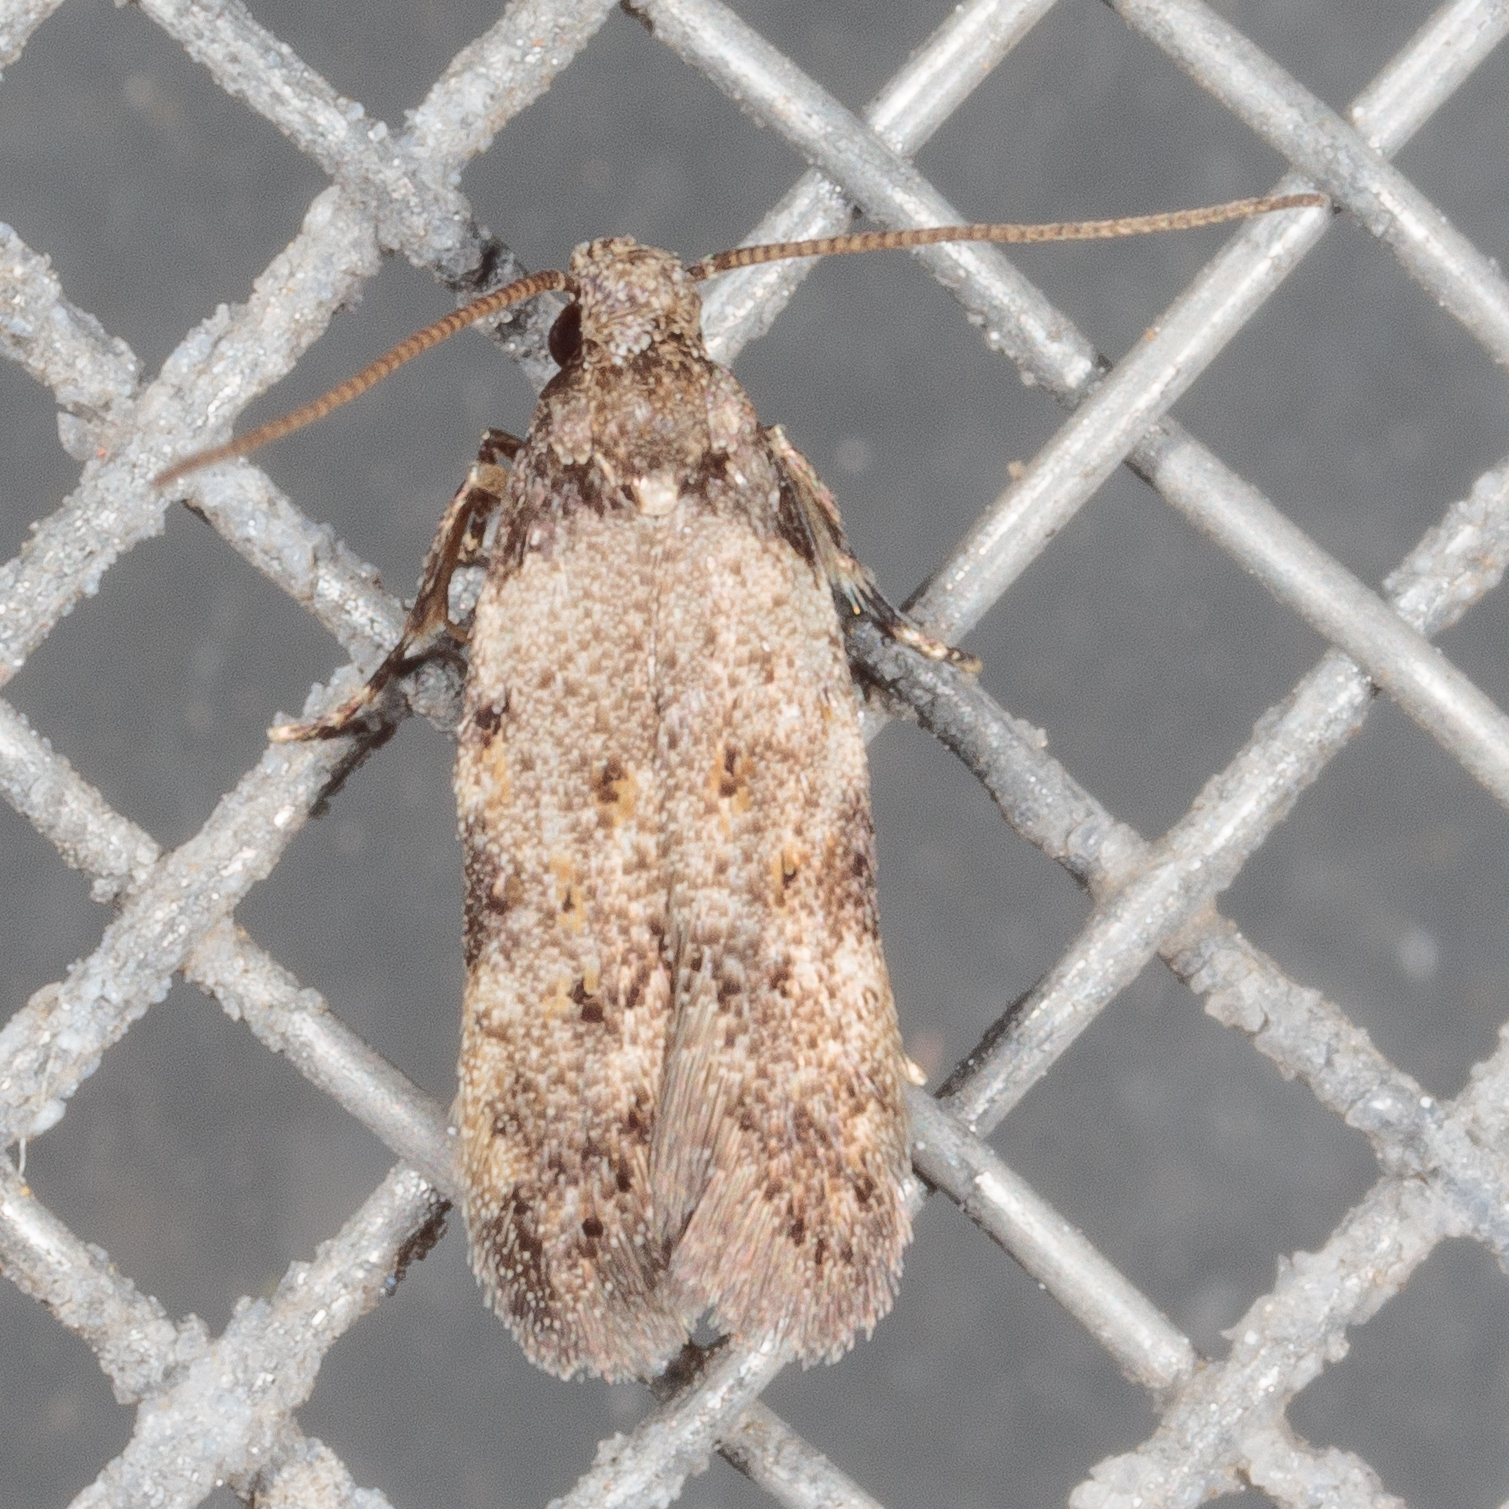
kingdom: Animalia
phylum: Arthropoda
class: Insecta
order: Lepidoptera
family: Autostichidae
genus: Taygete
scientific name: Taygete attributella
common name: Triangle-marked twirler moth
